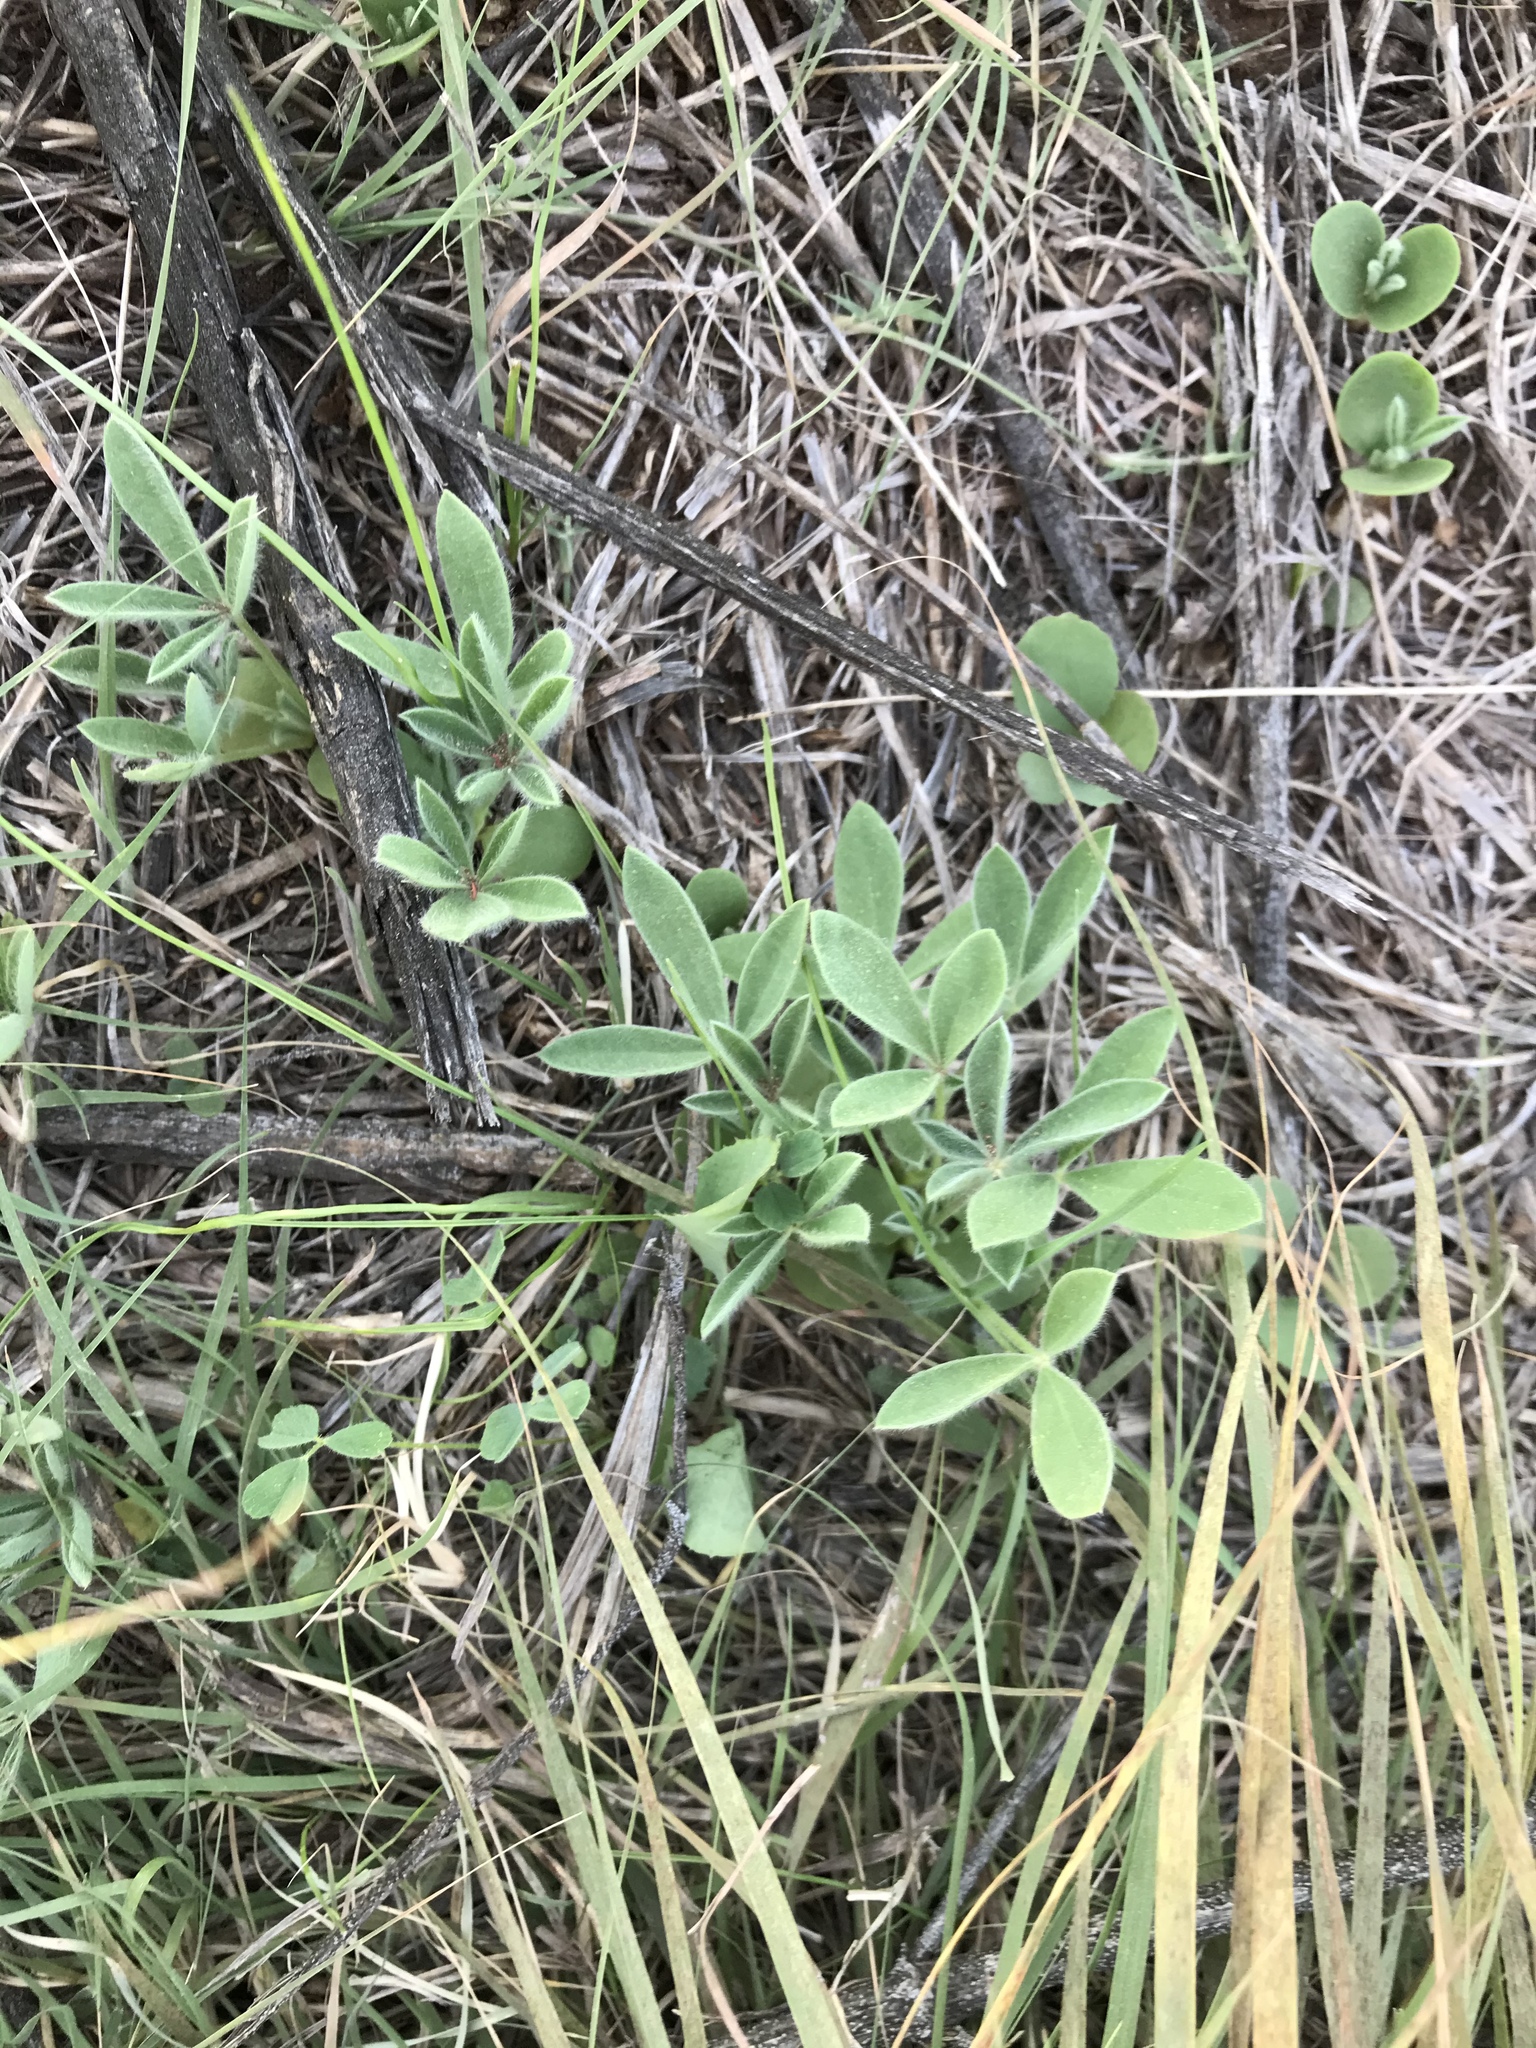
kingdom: Plantae
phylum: Tracheophyta
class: Magnoliopsida
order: Fabales
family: Fabaceae
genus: Lupinus
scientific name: Lupinus texensis
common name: Texas bluebonnet
